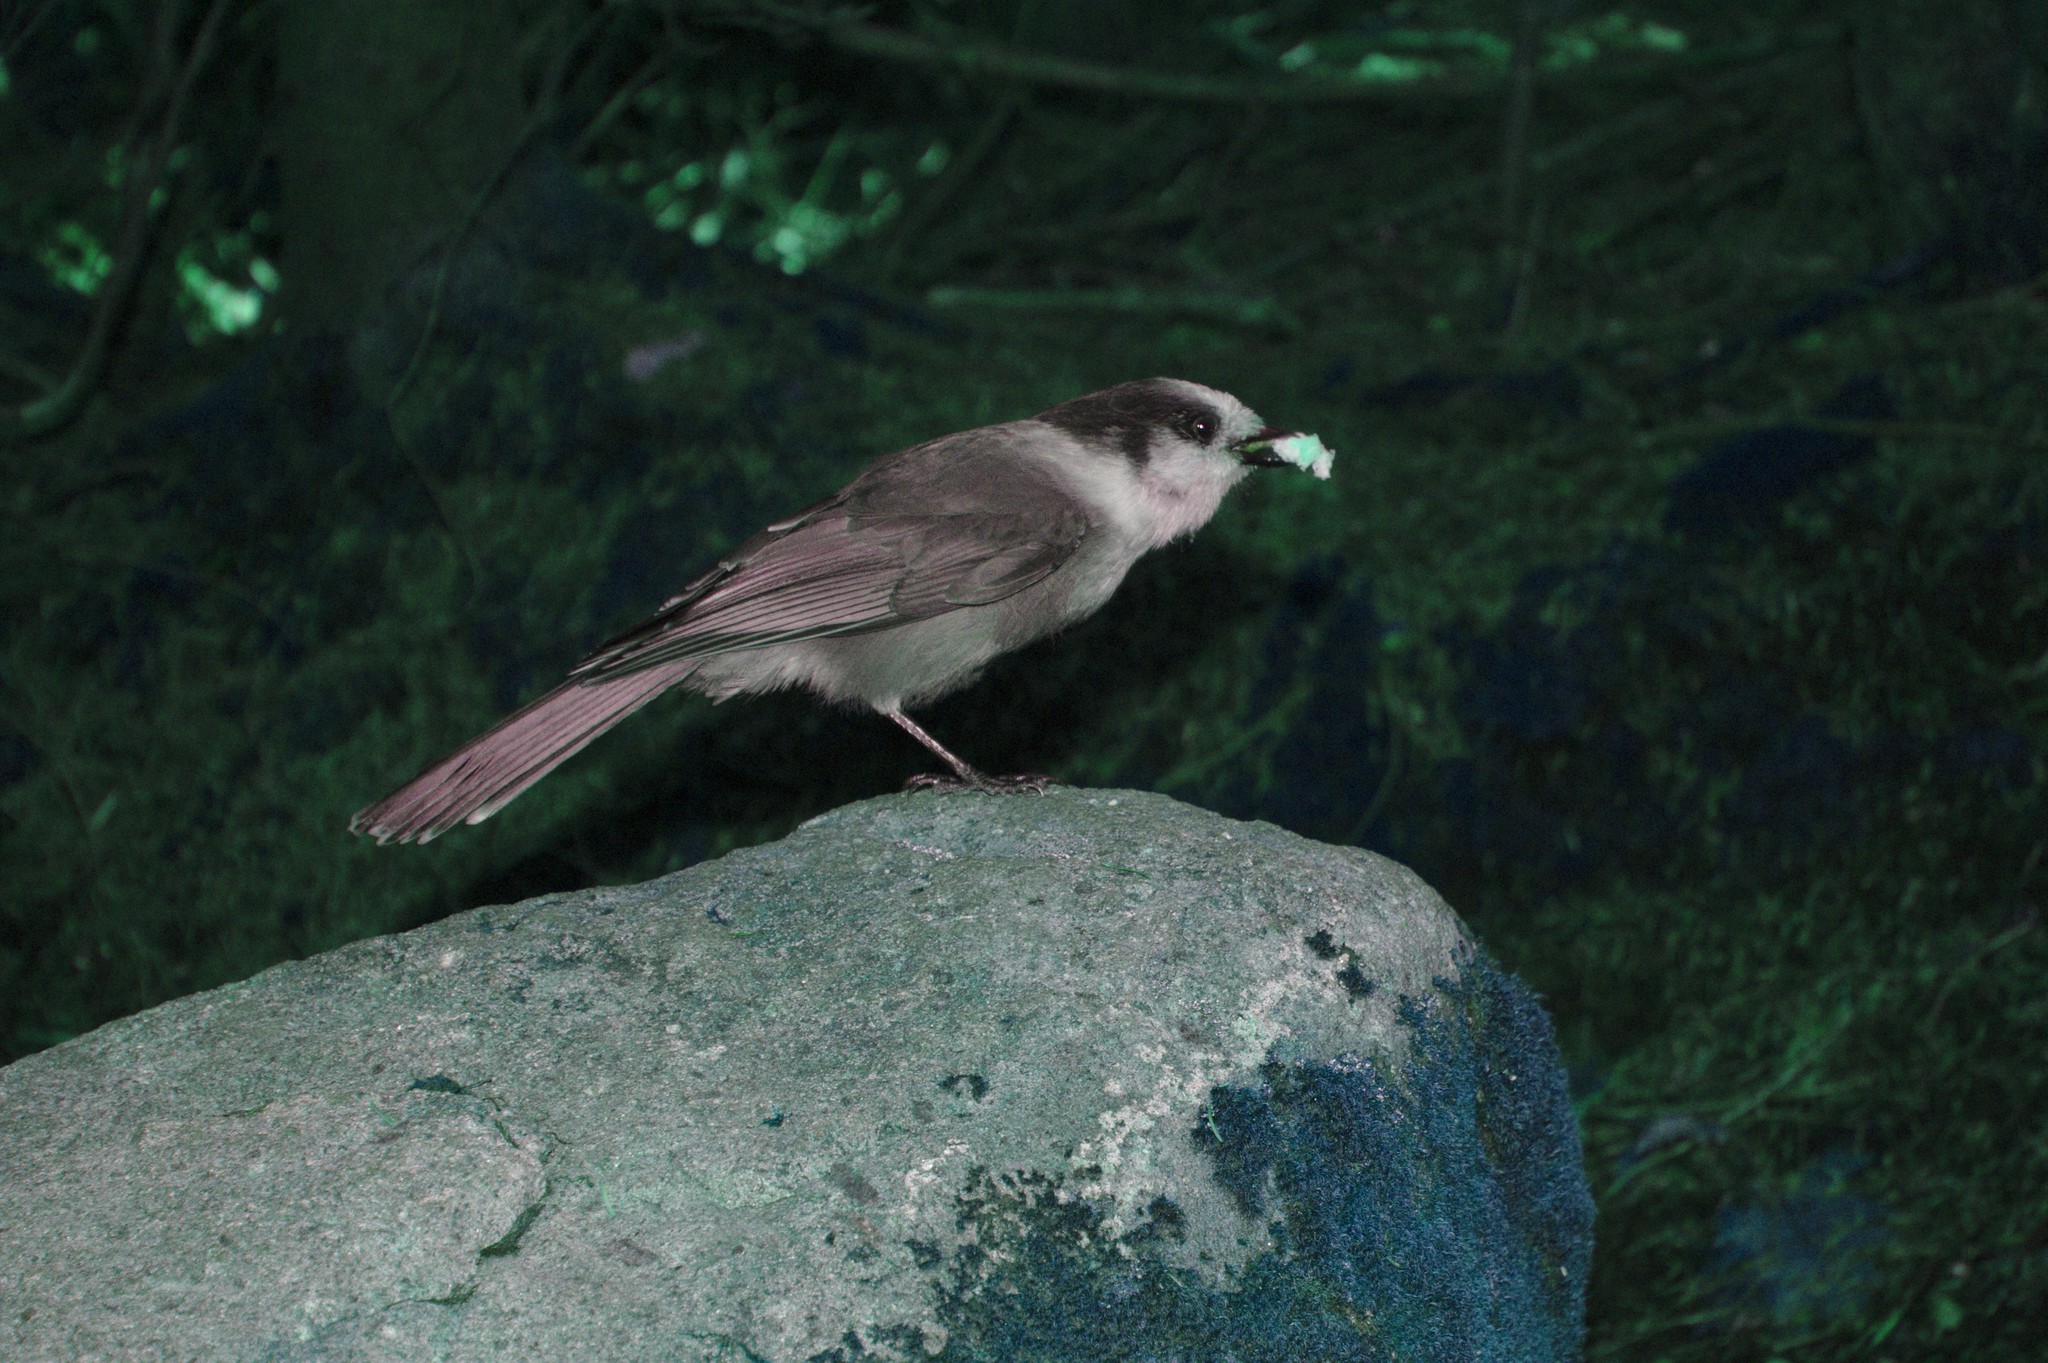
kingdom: Animalia
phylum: Chordata
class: Aves
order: Passeriformes
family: Corvidae
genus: Perisoreus
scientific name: Perisoreus canadensis
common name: Gray jay
